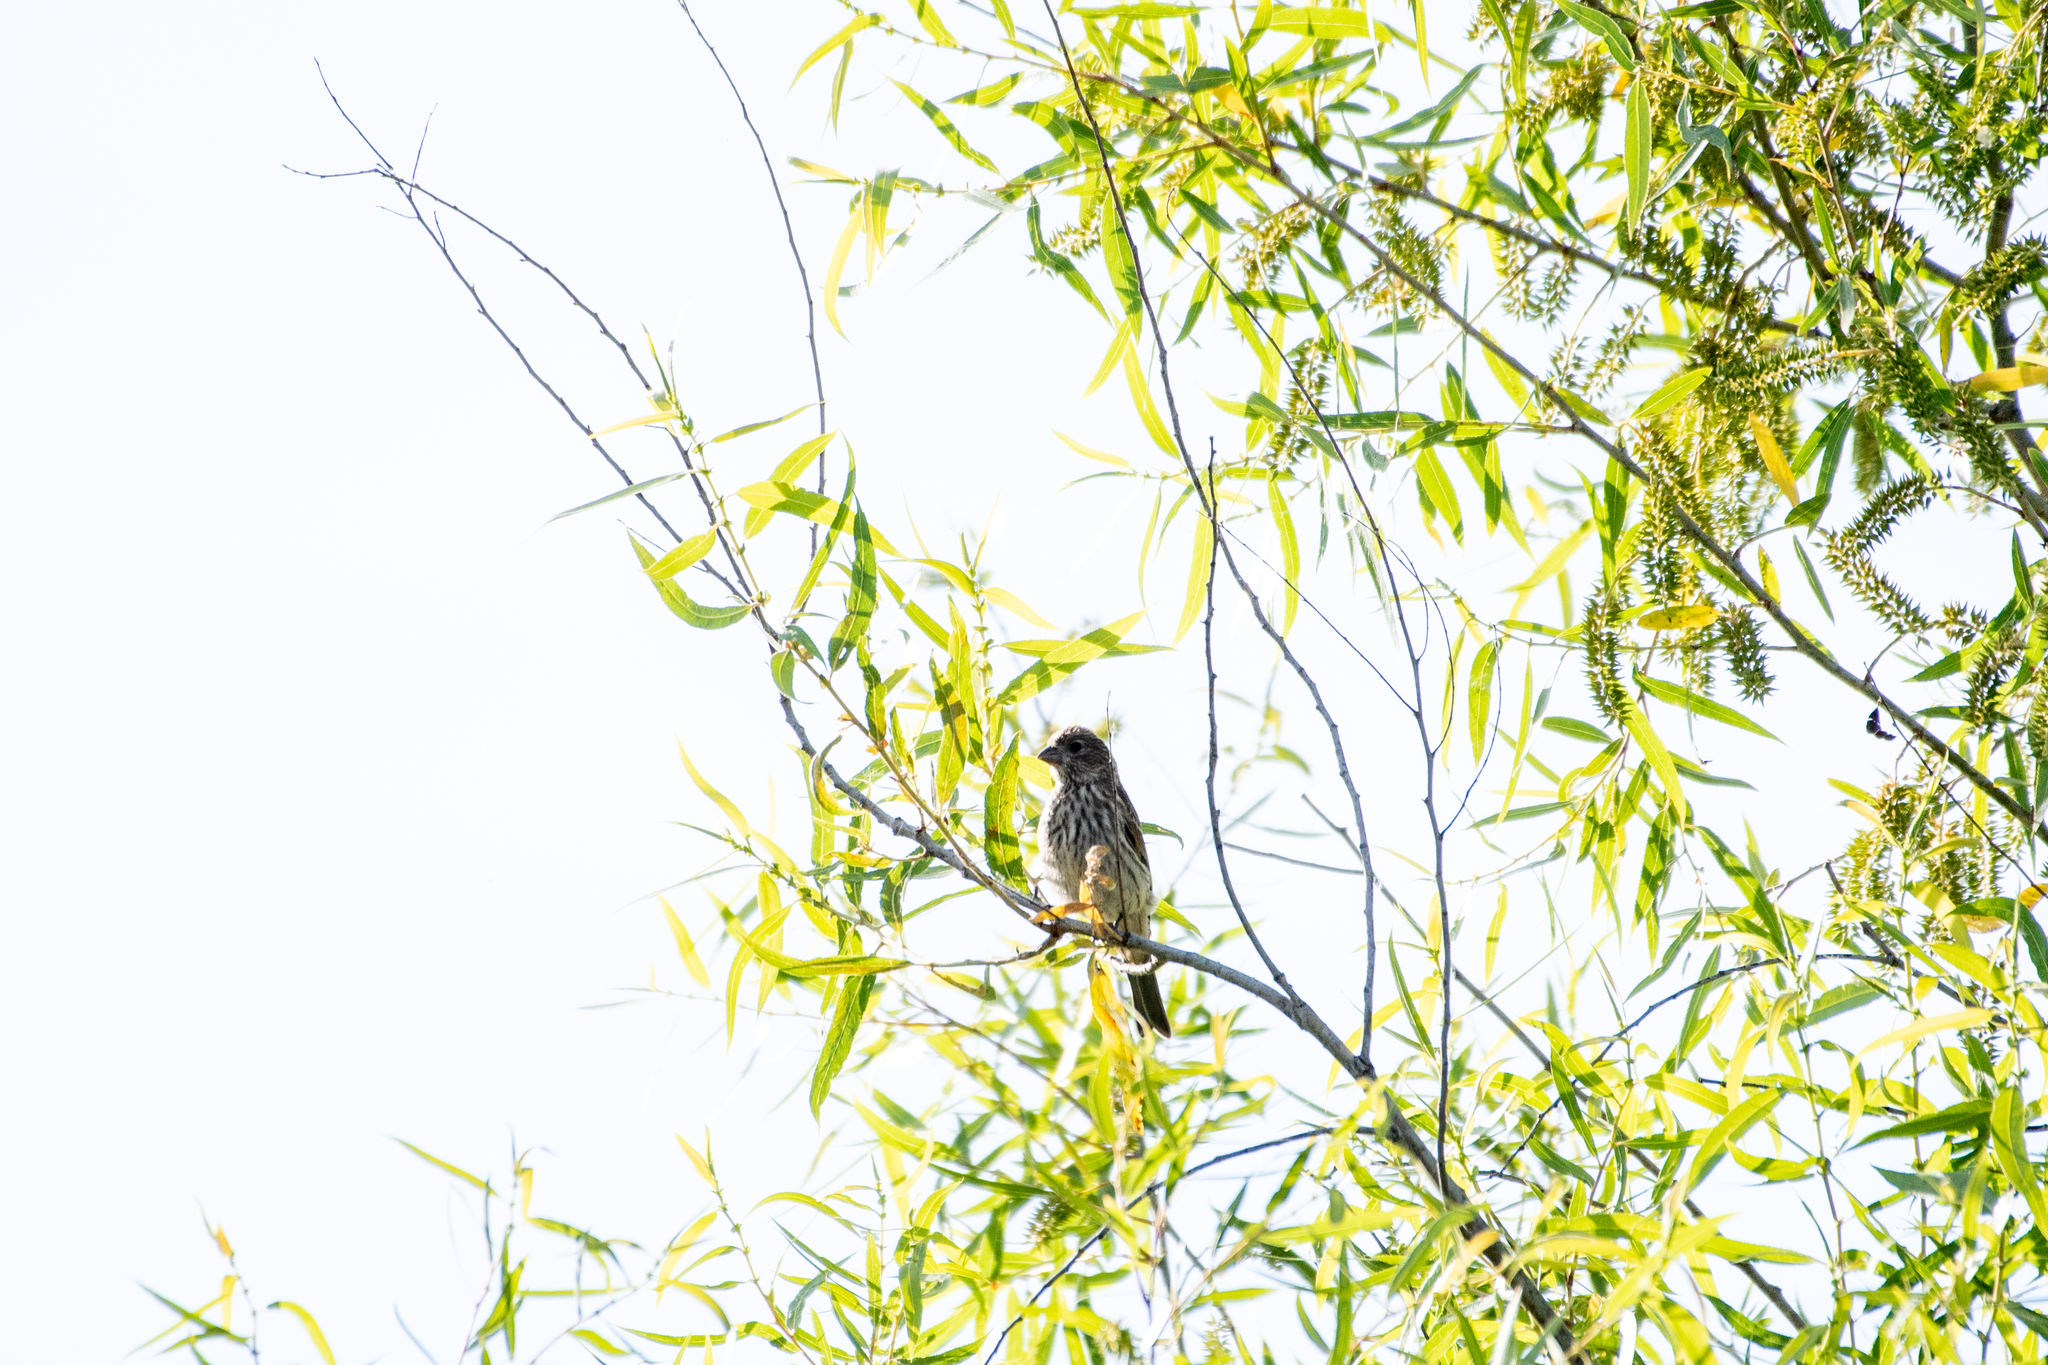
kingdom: Animalia
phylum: Chordata
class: Aves
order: Passeriformes
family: Fringillidae
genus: Haemorhous
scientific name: Haemorhous mexicanus
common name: House finch
